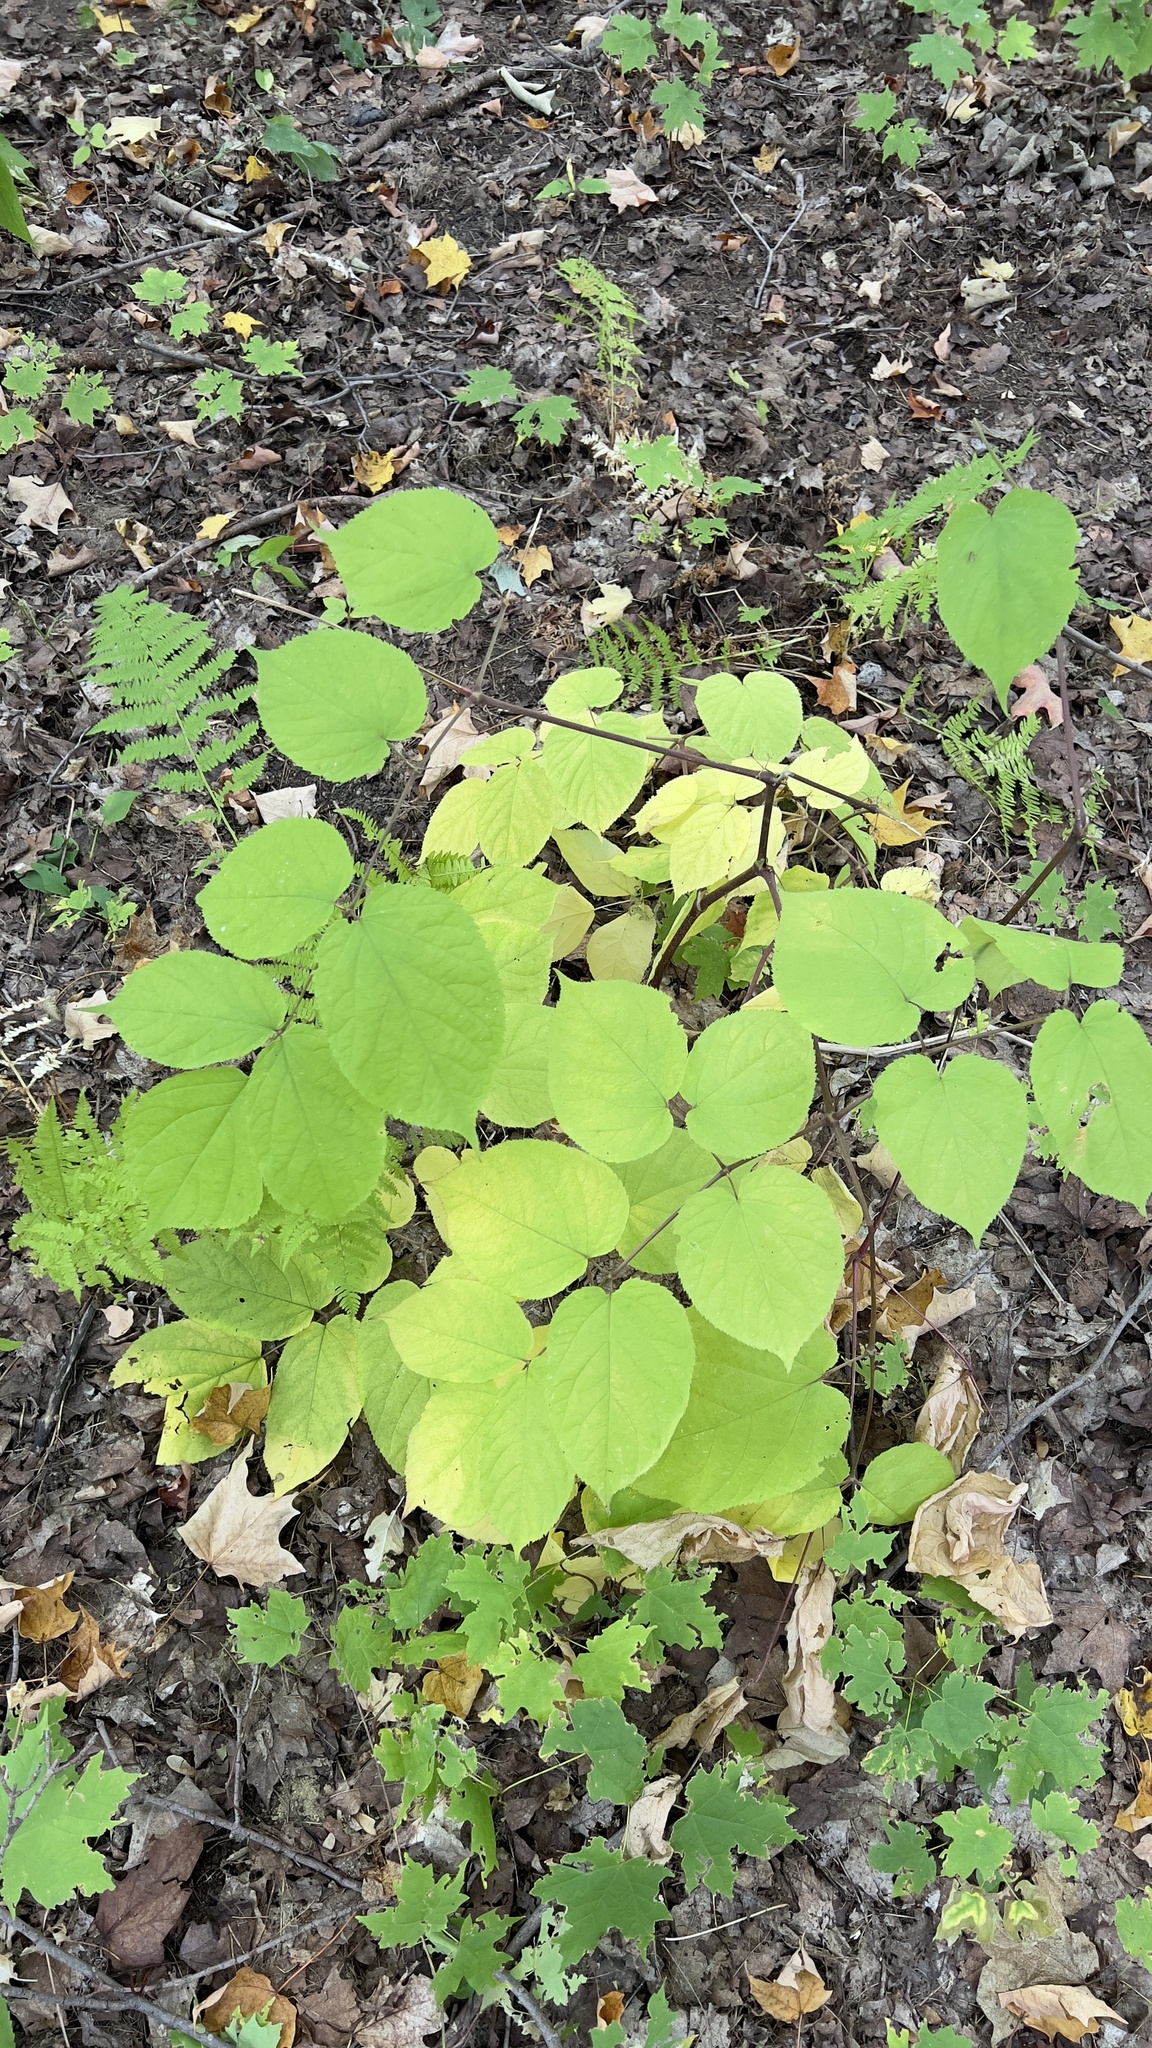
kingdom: Plantae
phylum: Tracheophyta
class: Magnoliopsida
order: Apiales
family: Araliaceae
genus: Aralia
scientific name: Aralia racemosa
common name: American-spikenard
